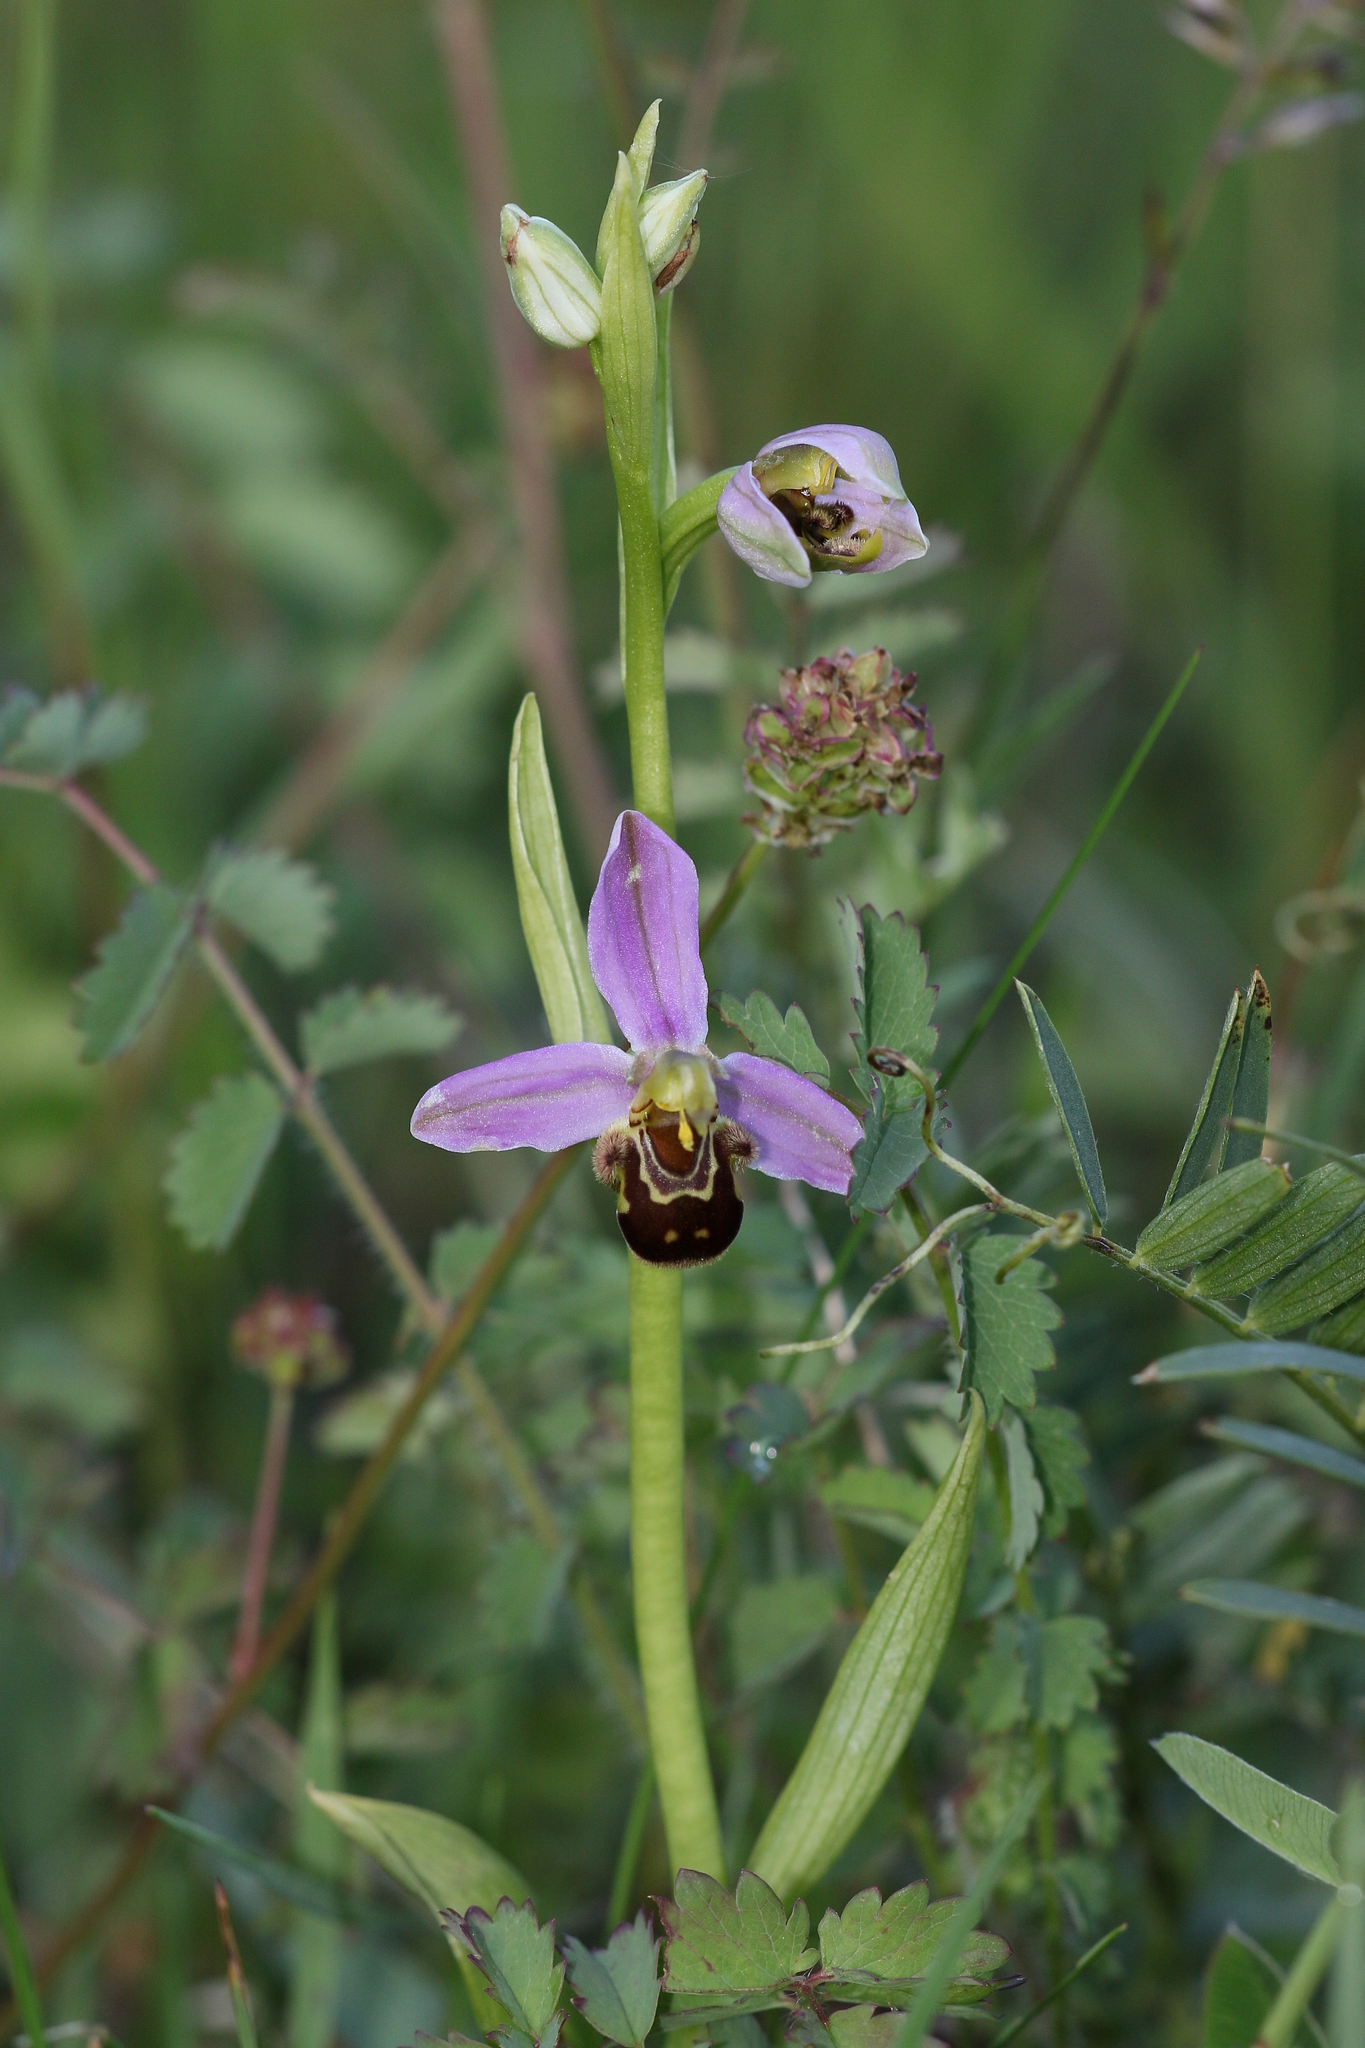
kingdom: Plantae
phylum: Tracheophyta
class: Liliopsida
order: Asparagales
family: Orchidaceae
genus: Ophrys
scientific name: Ophrys apifera
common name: Bee orchid
